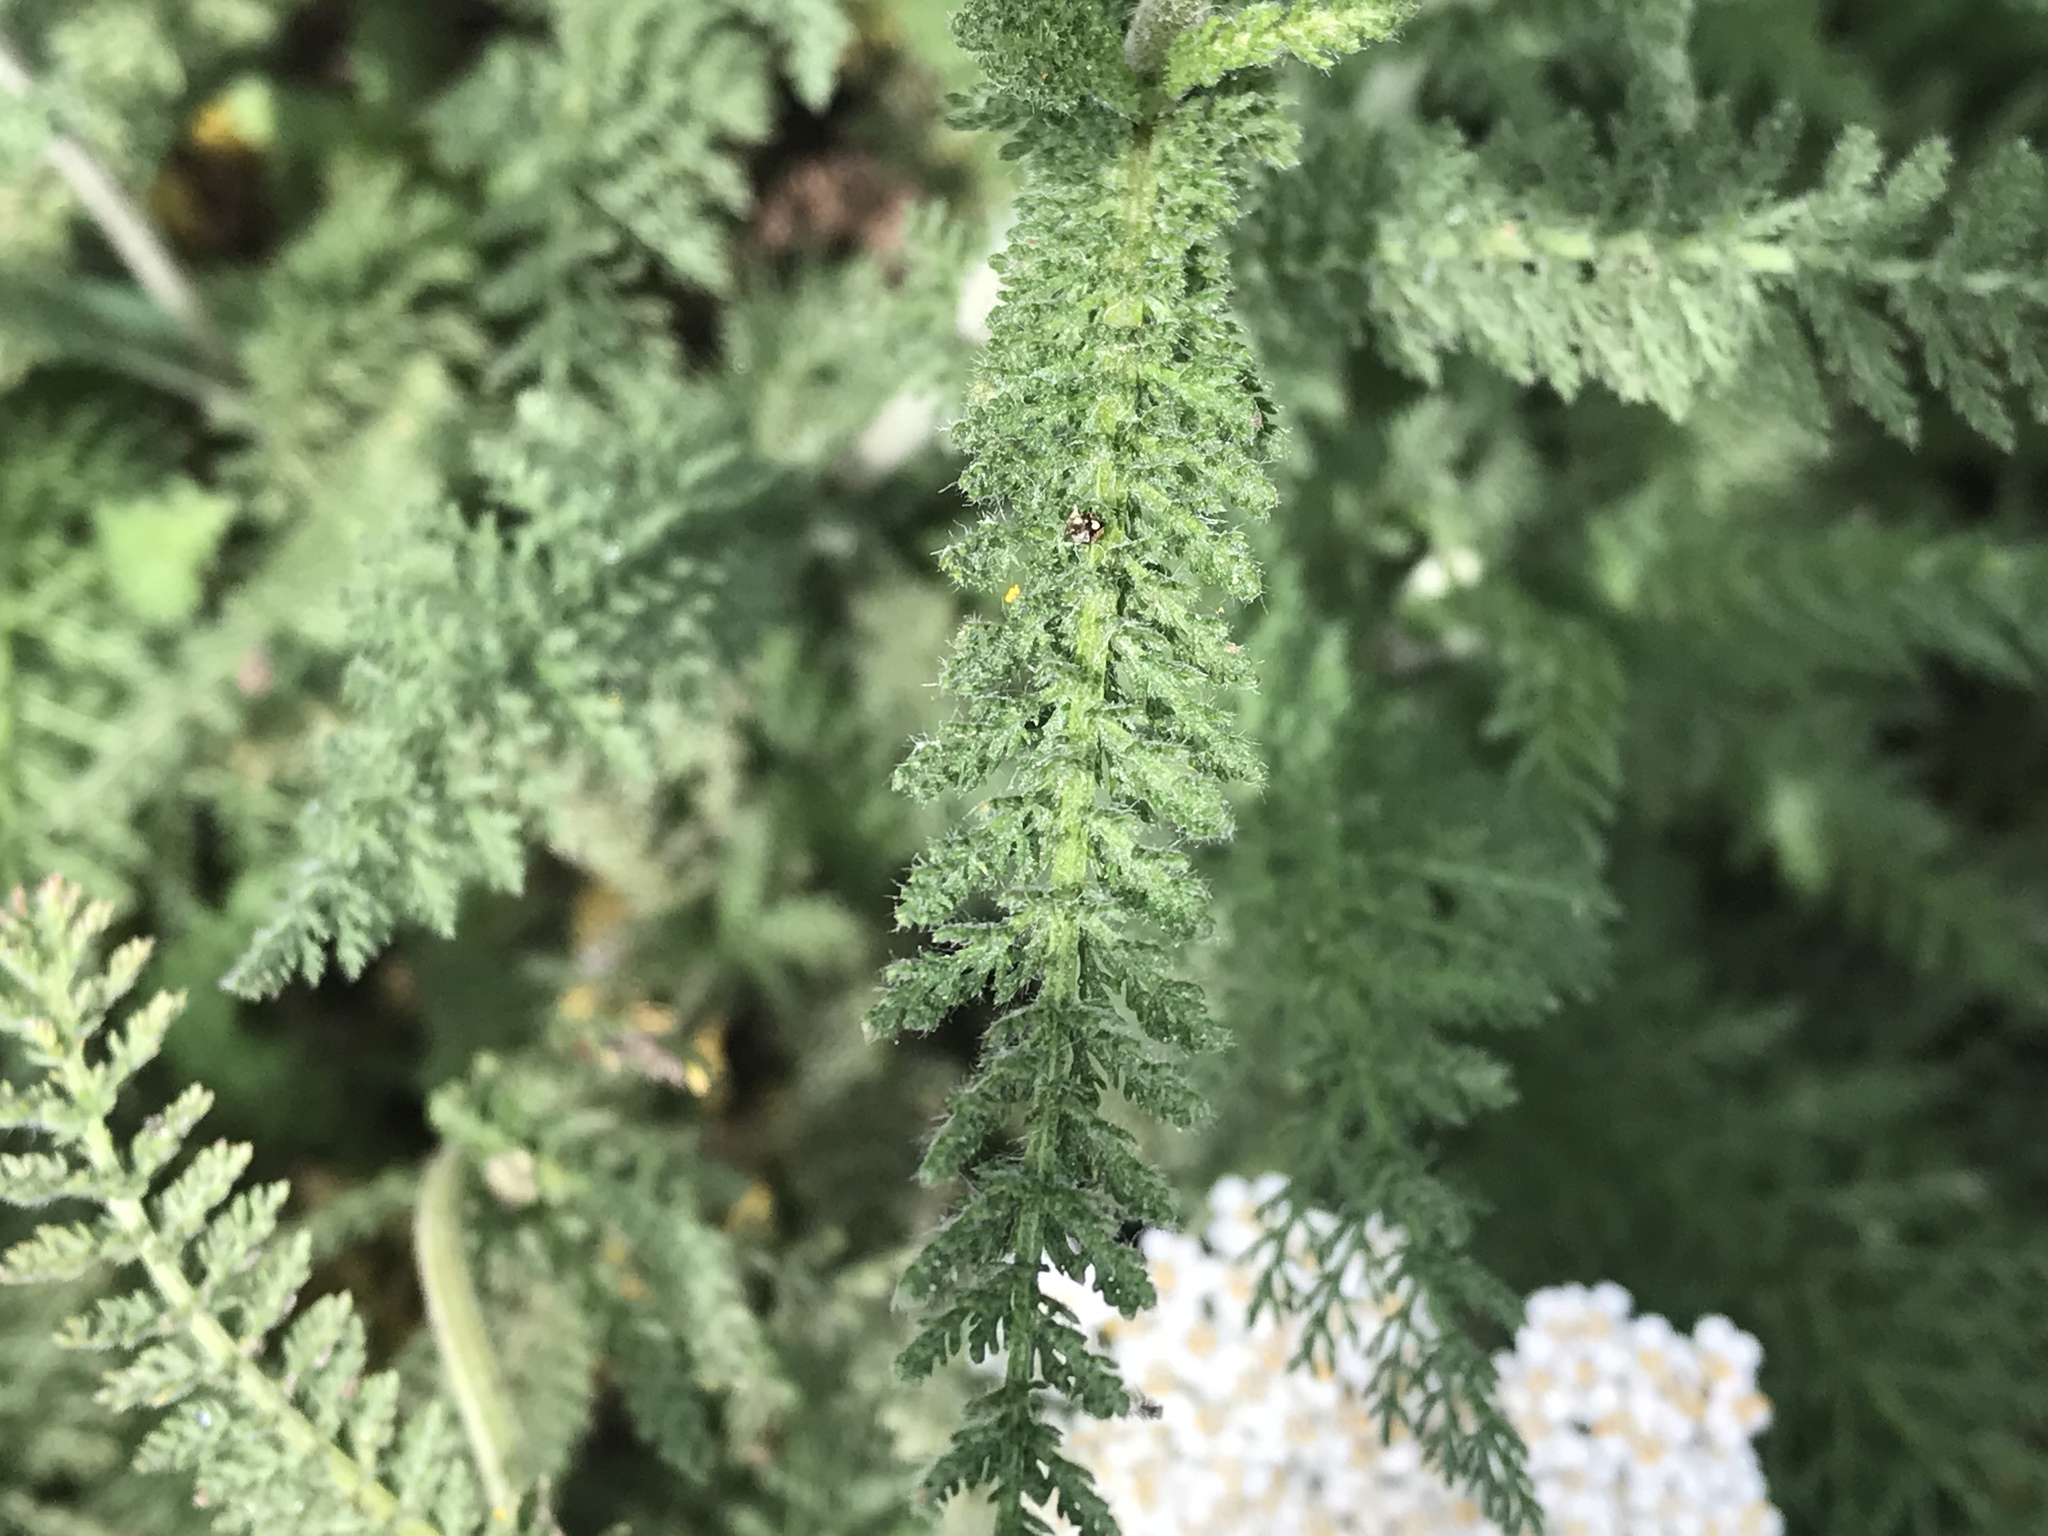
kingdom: Plantae
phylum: Tracheophyta
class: Magnoliopsida
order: Asterales
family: Asteraceae
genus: Achillea
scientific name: Achillea millefolium
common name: Yarrow
